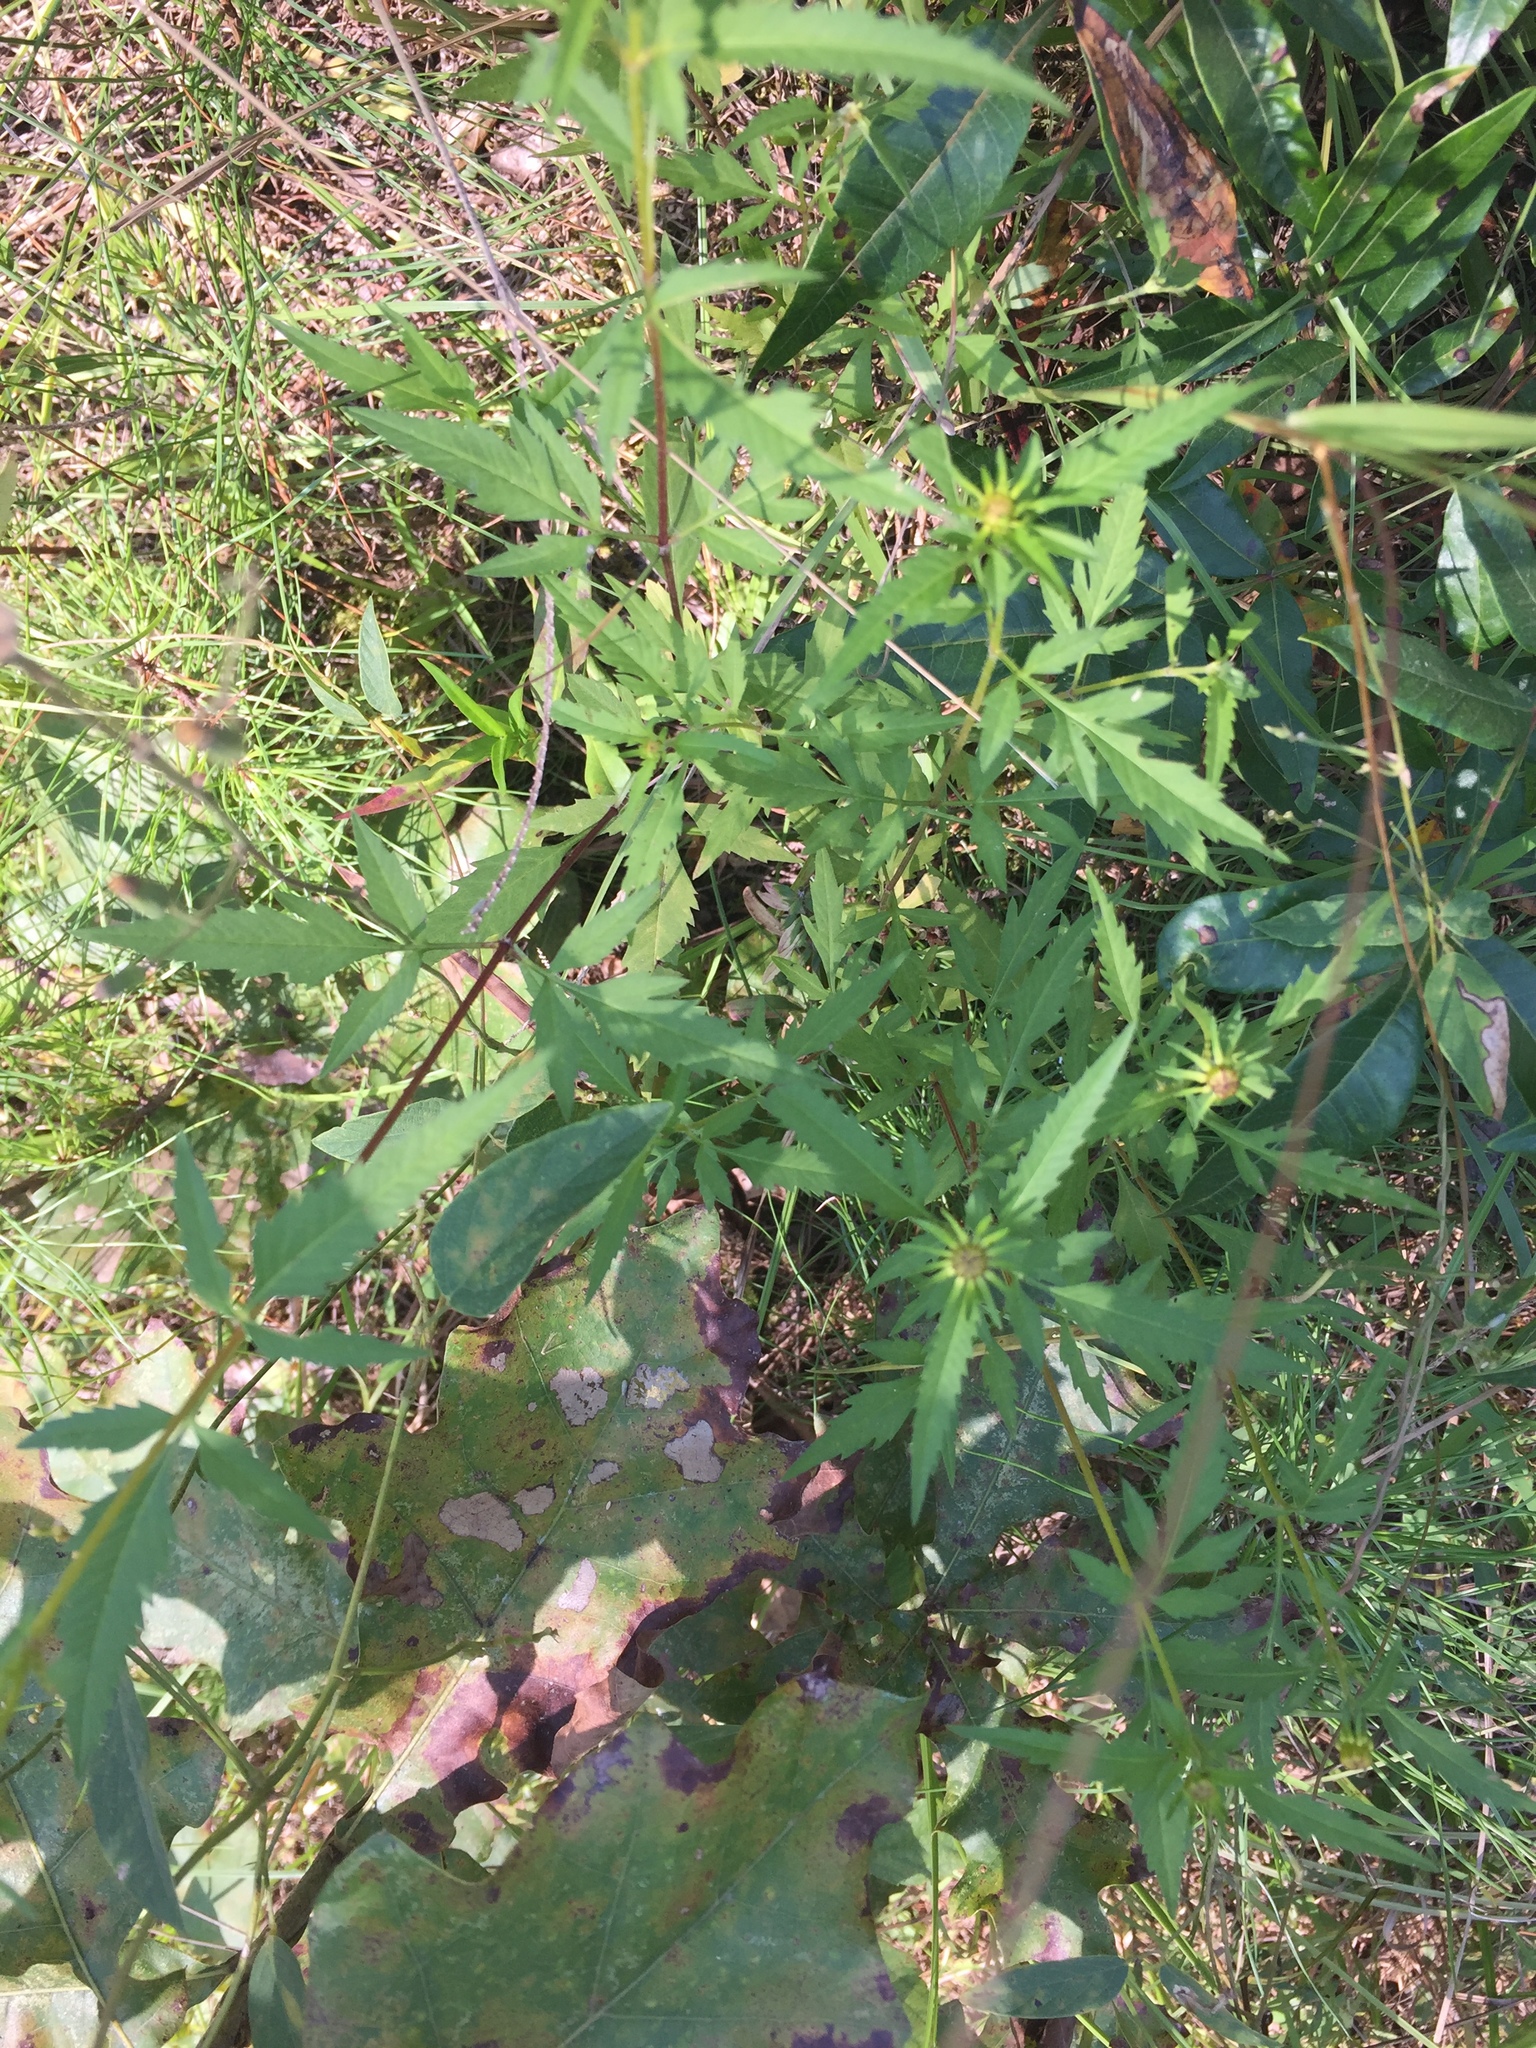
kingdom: Plantae
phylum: Tracheophyta
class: Magnoliopsida
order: Asterales
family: Asteraceae
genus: Bidens
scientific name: Bidens aristosa
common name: Western tickseed
